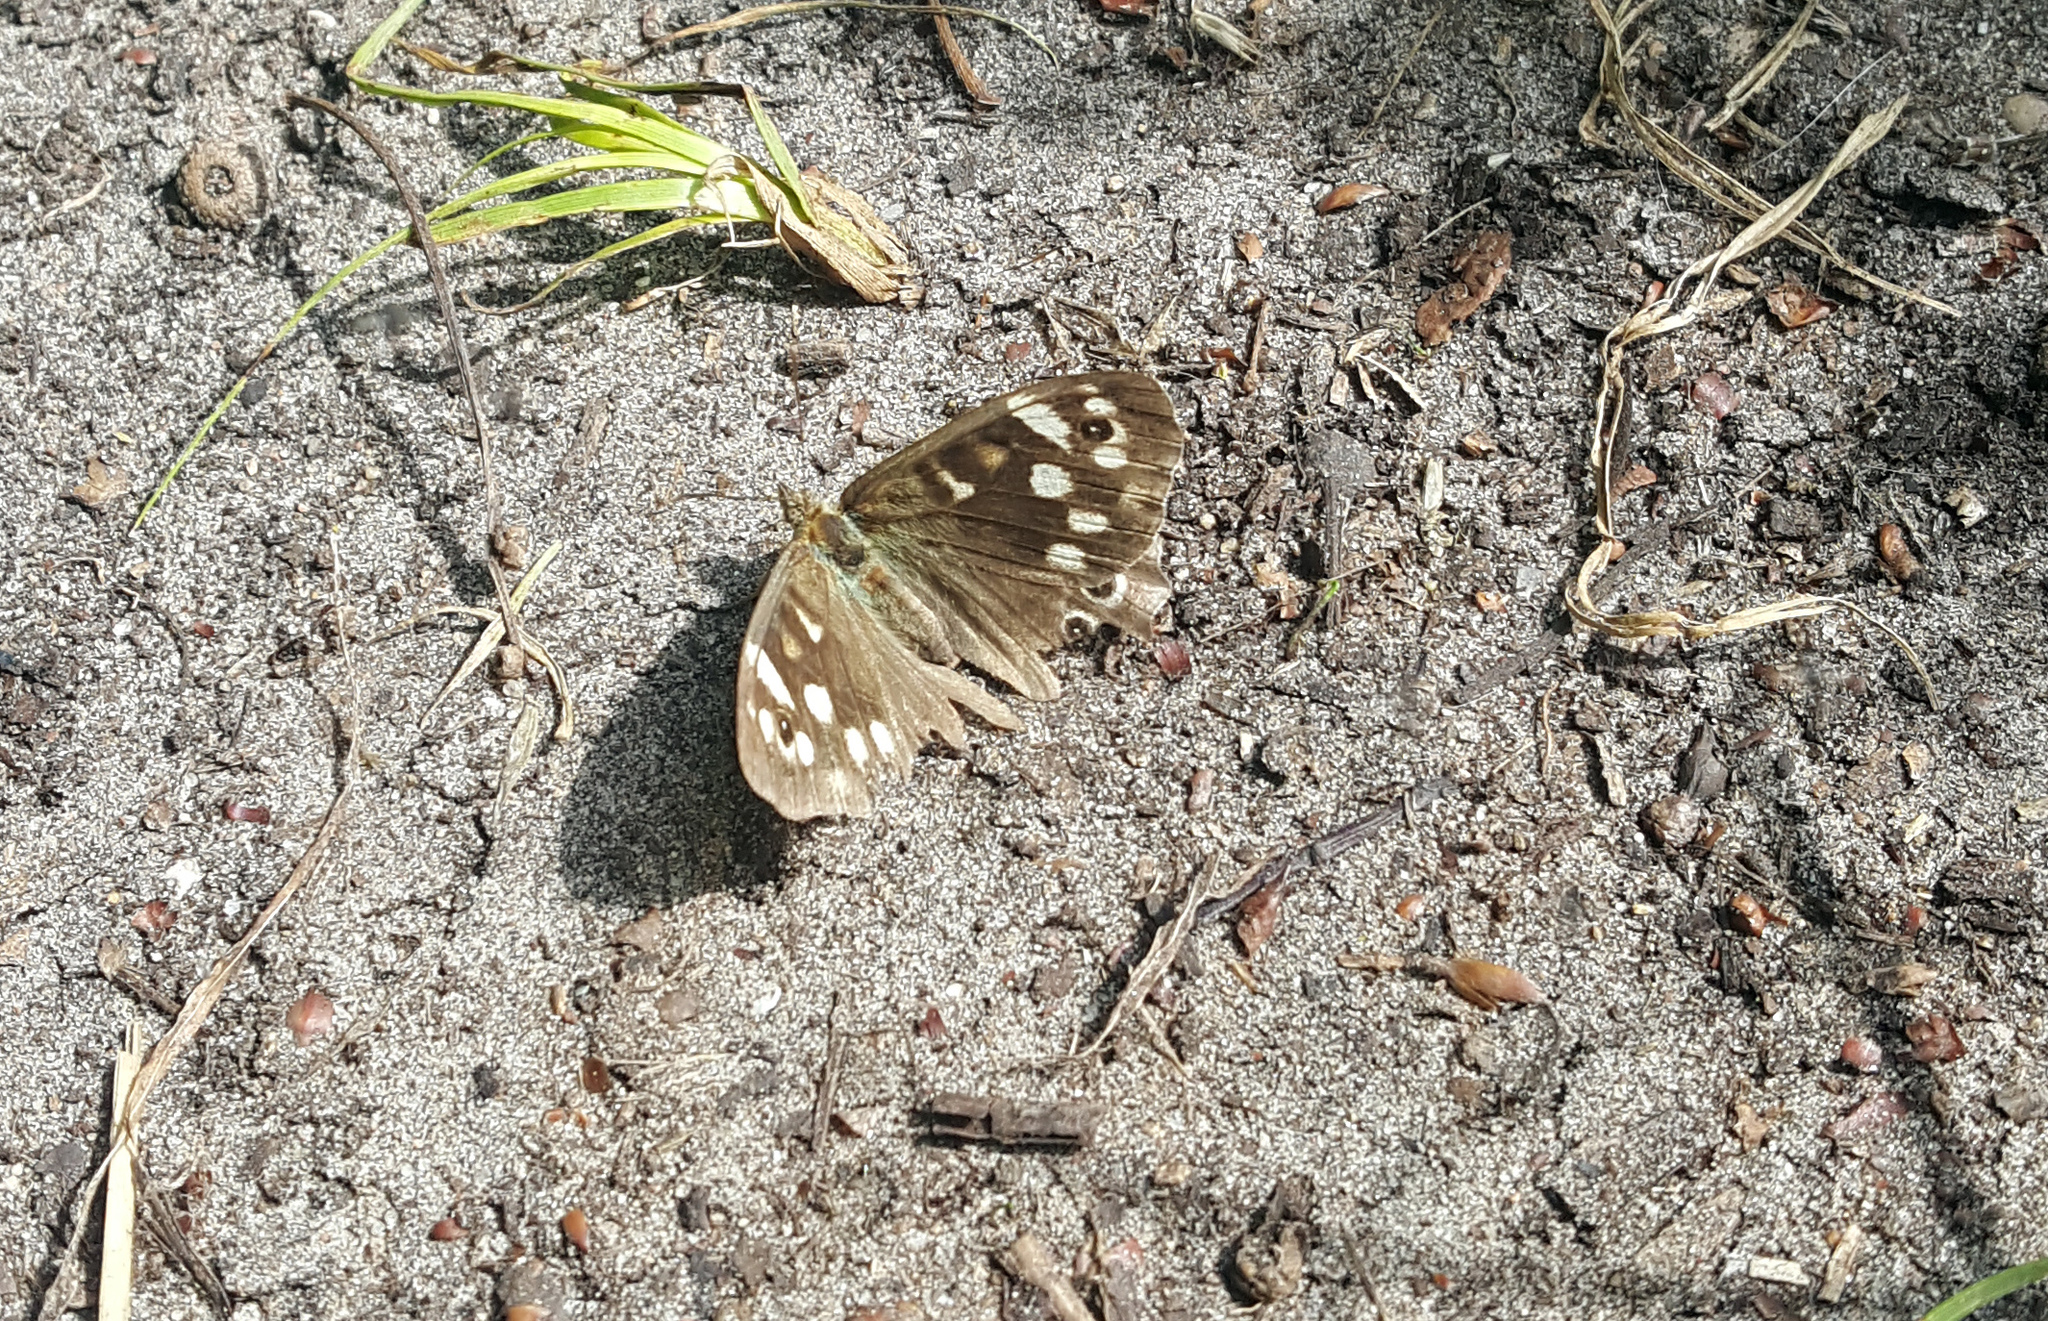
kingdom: Animalia
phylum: Arthropoda
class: Insecta
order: Lepidoptera
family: Nymphalidae
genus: Pararge
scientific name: Pararge aegeria
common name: Speckled wood
